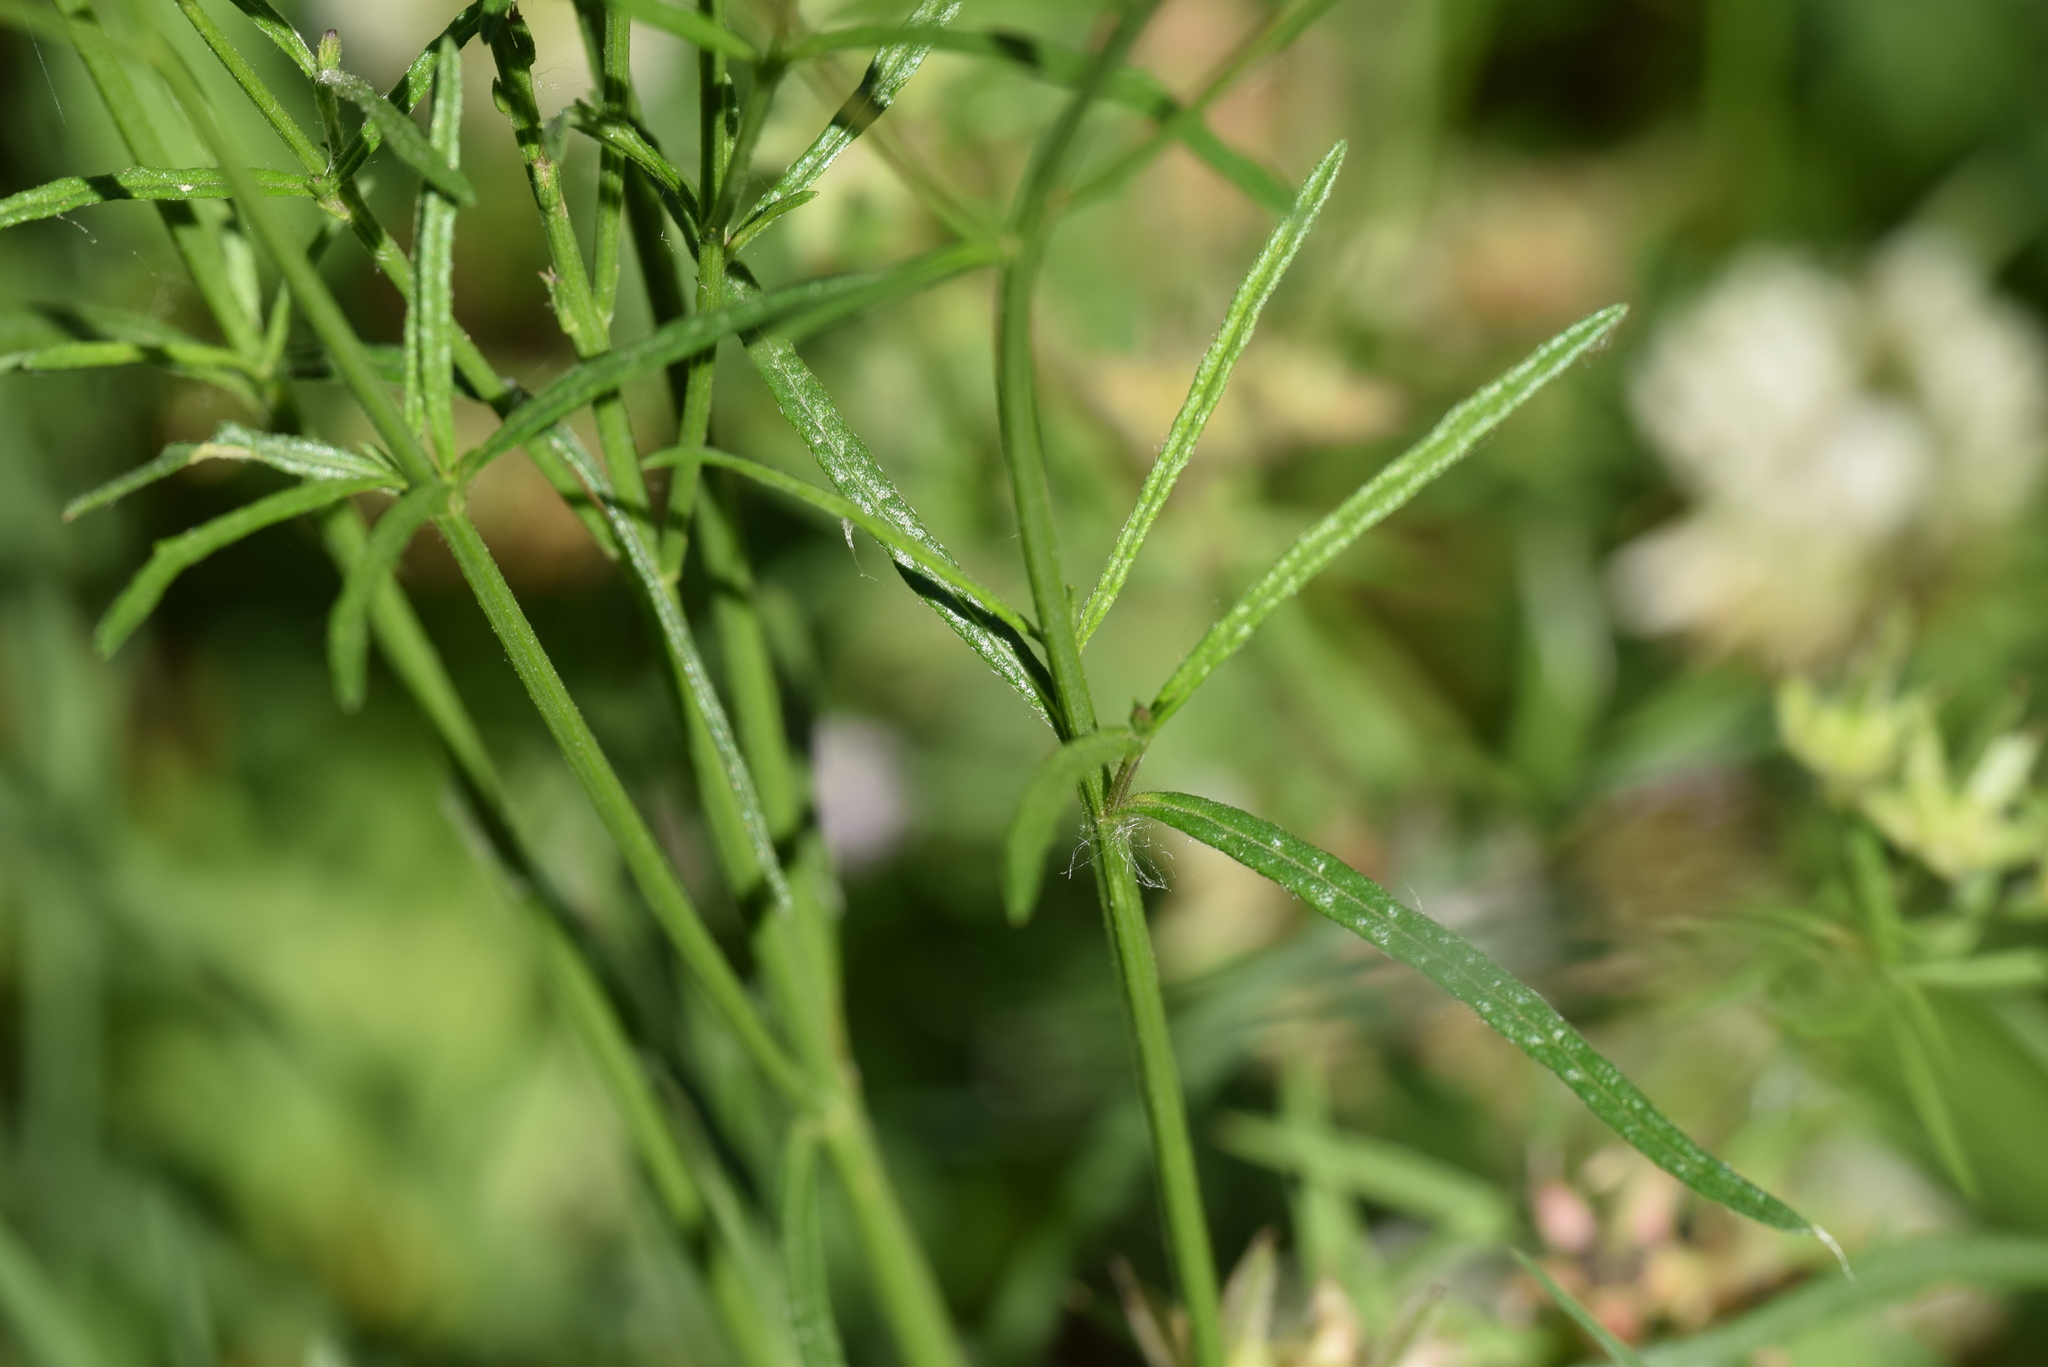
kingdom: Plantae
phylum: Tracheophyta
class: Magnoliopsida
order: Lamiales
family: Verbenaceae
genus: Verbena
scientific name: Verbena halei
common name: Texas vervain
